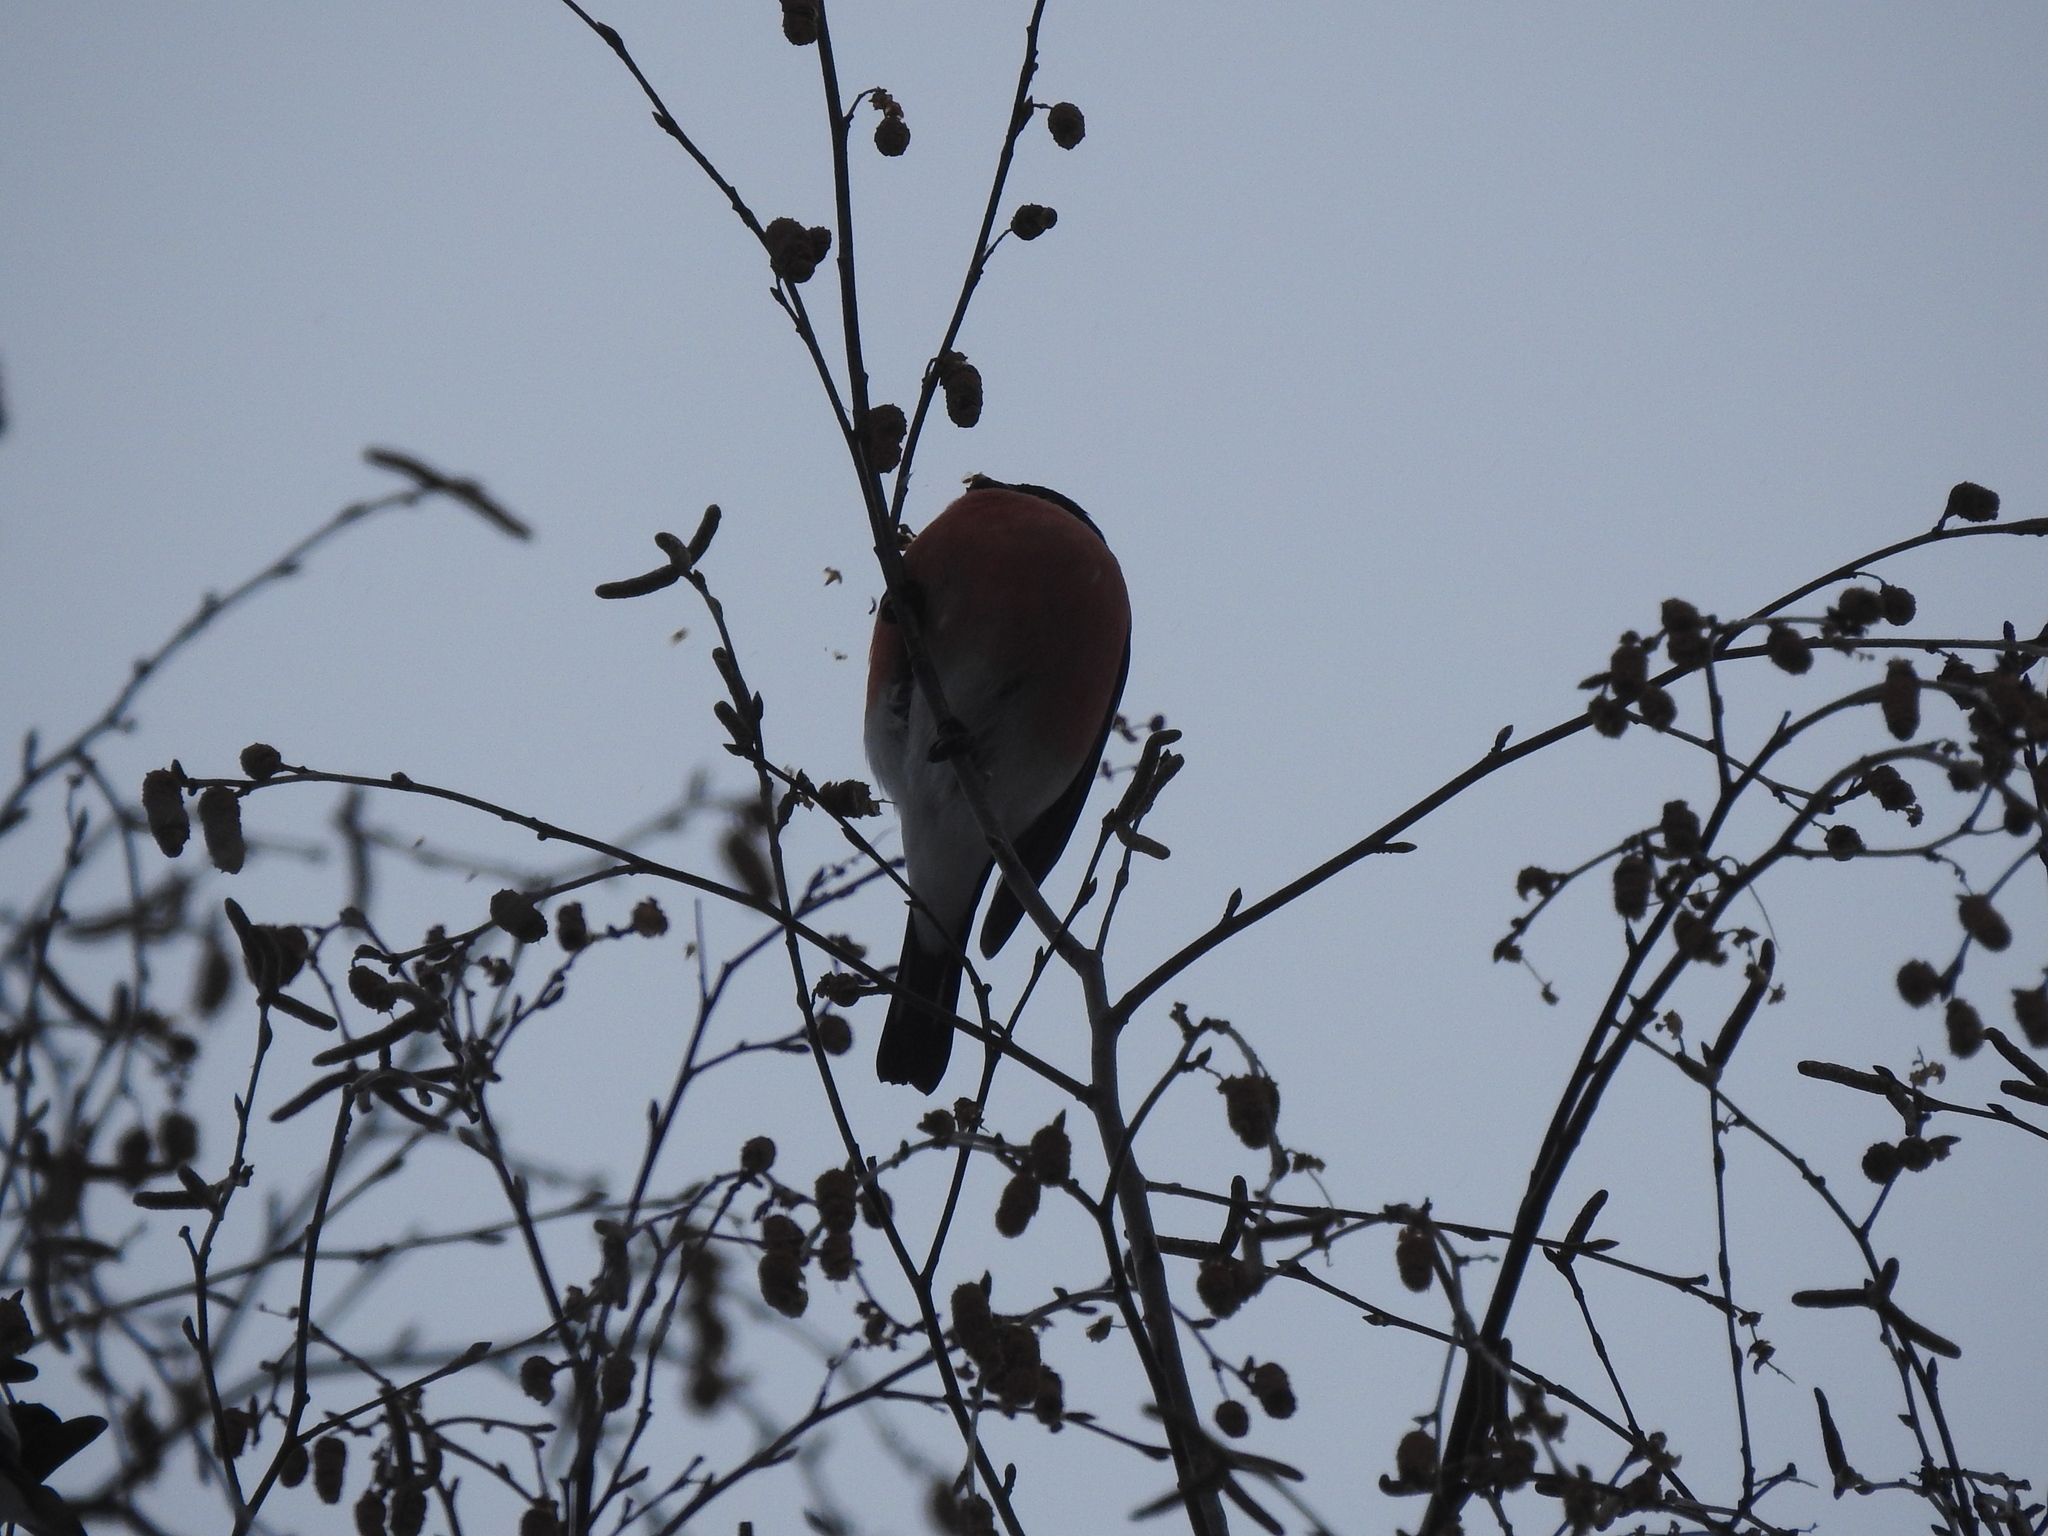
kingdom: Animalia
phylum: Chordata
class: Aves
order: Passeriformes
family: Fringillidae
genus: Pyrrhula
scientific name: Pyrrhula pyrrhula
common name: Eurasian bullfinch
